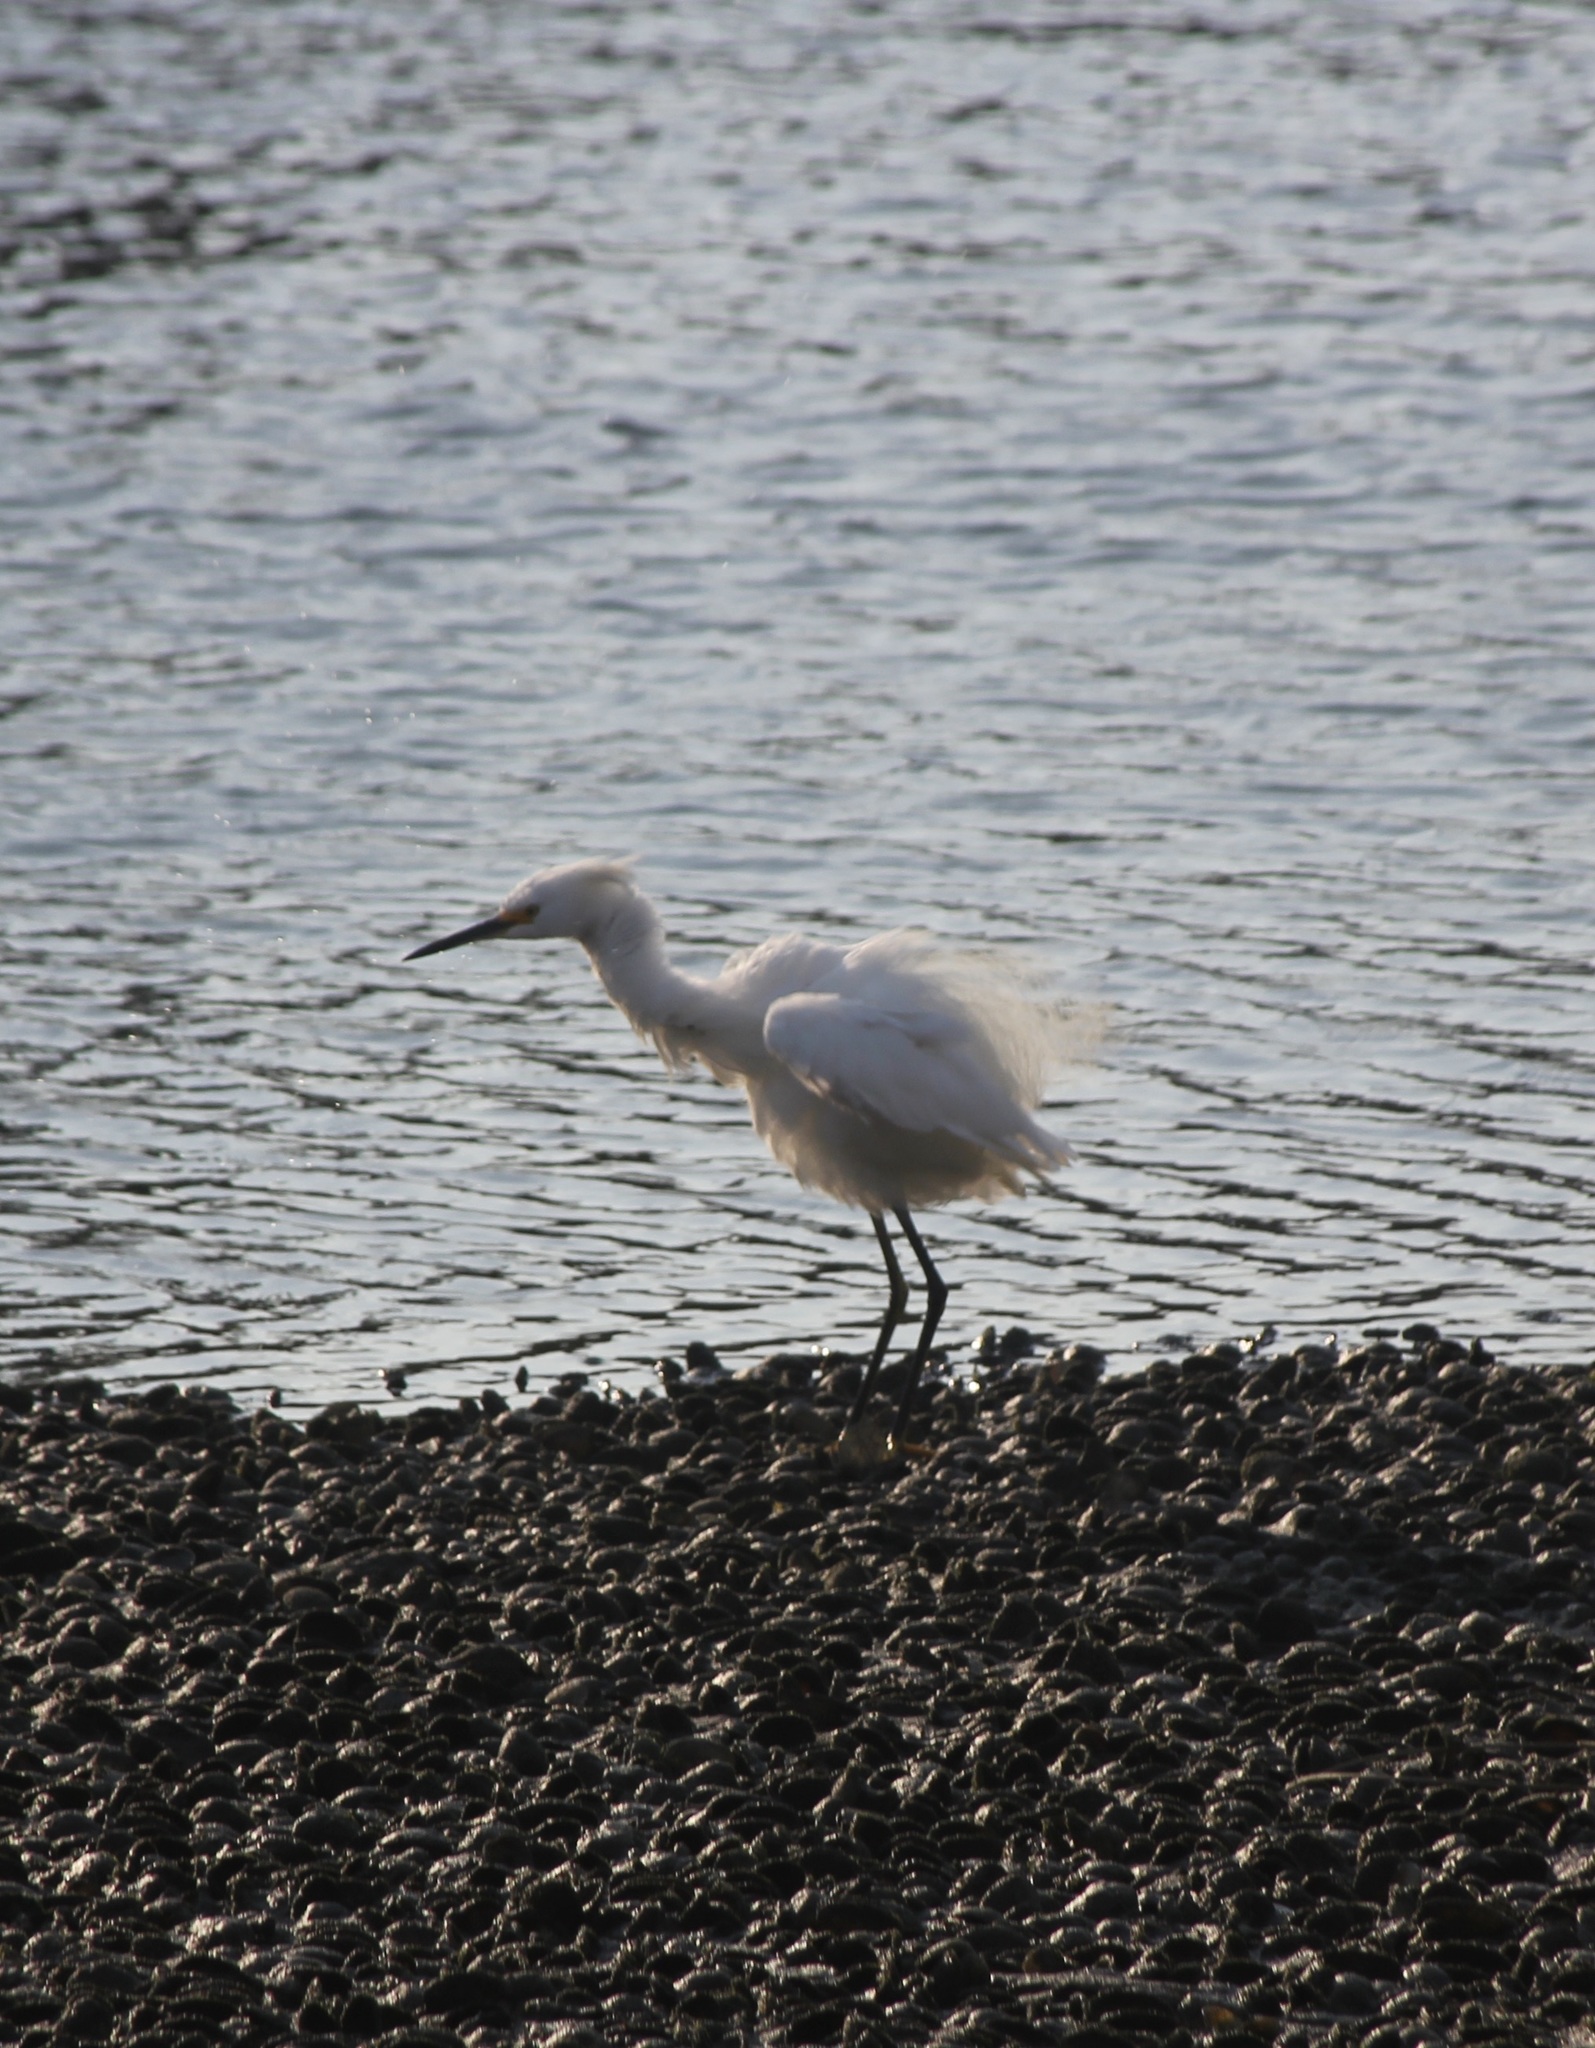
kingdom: Animalia
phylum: Chordata
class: Aves
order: Pelecaniformes
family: Ardeidae
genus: Egretta
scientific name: Egretta thula
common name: Snowy egret
